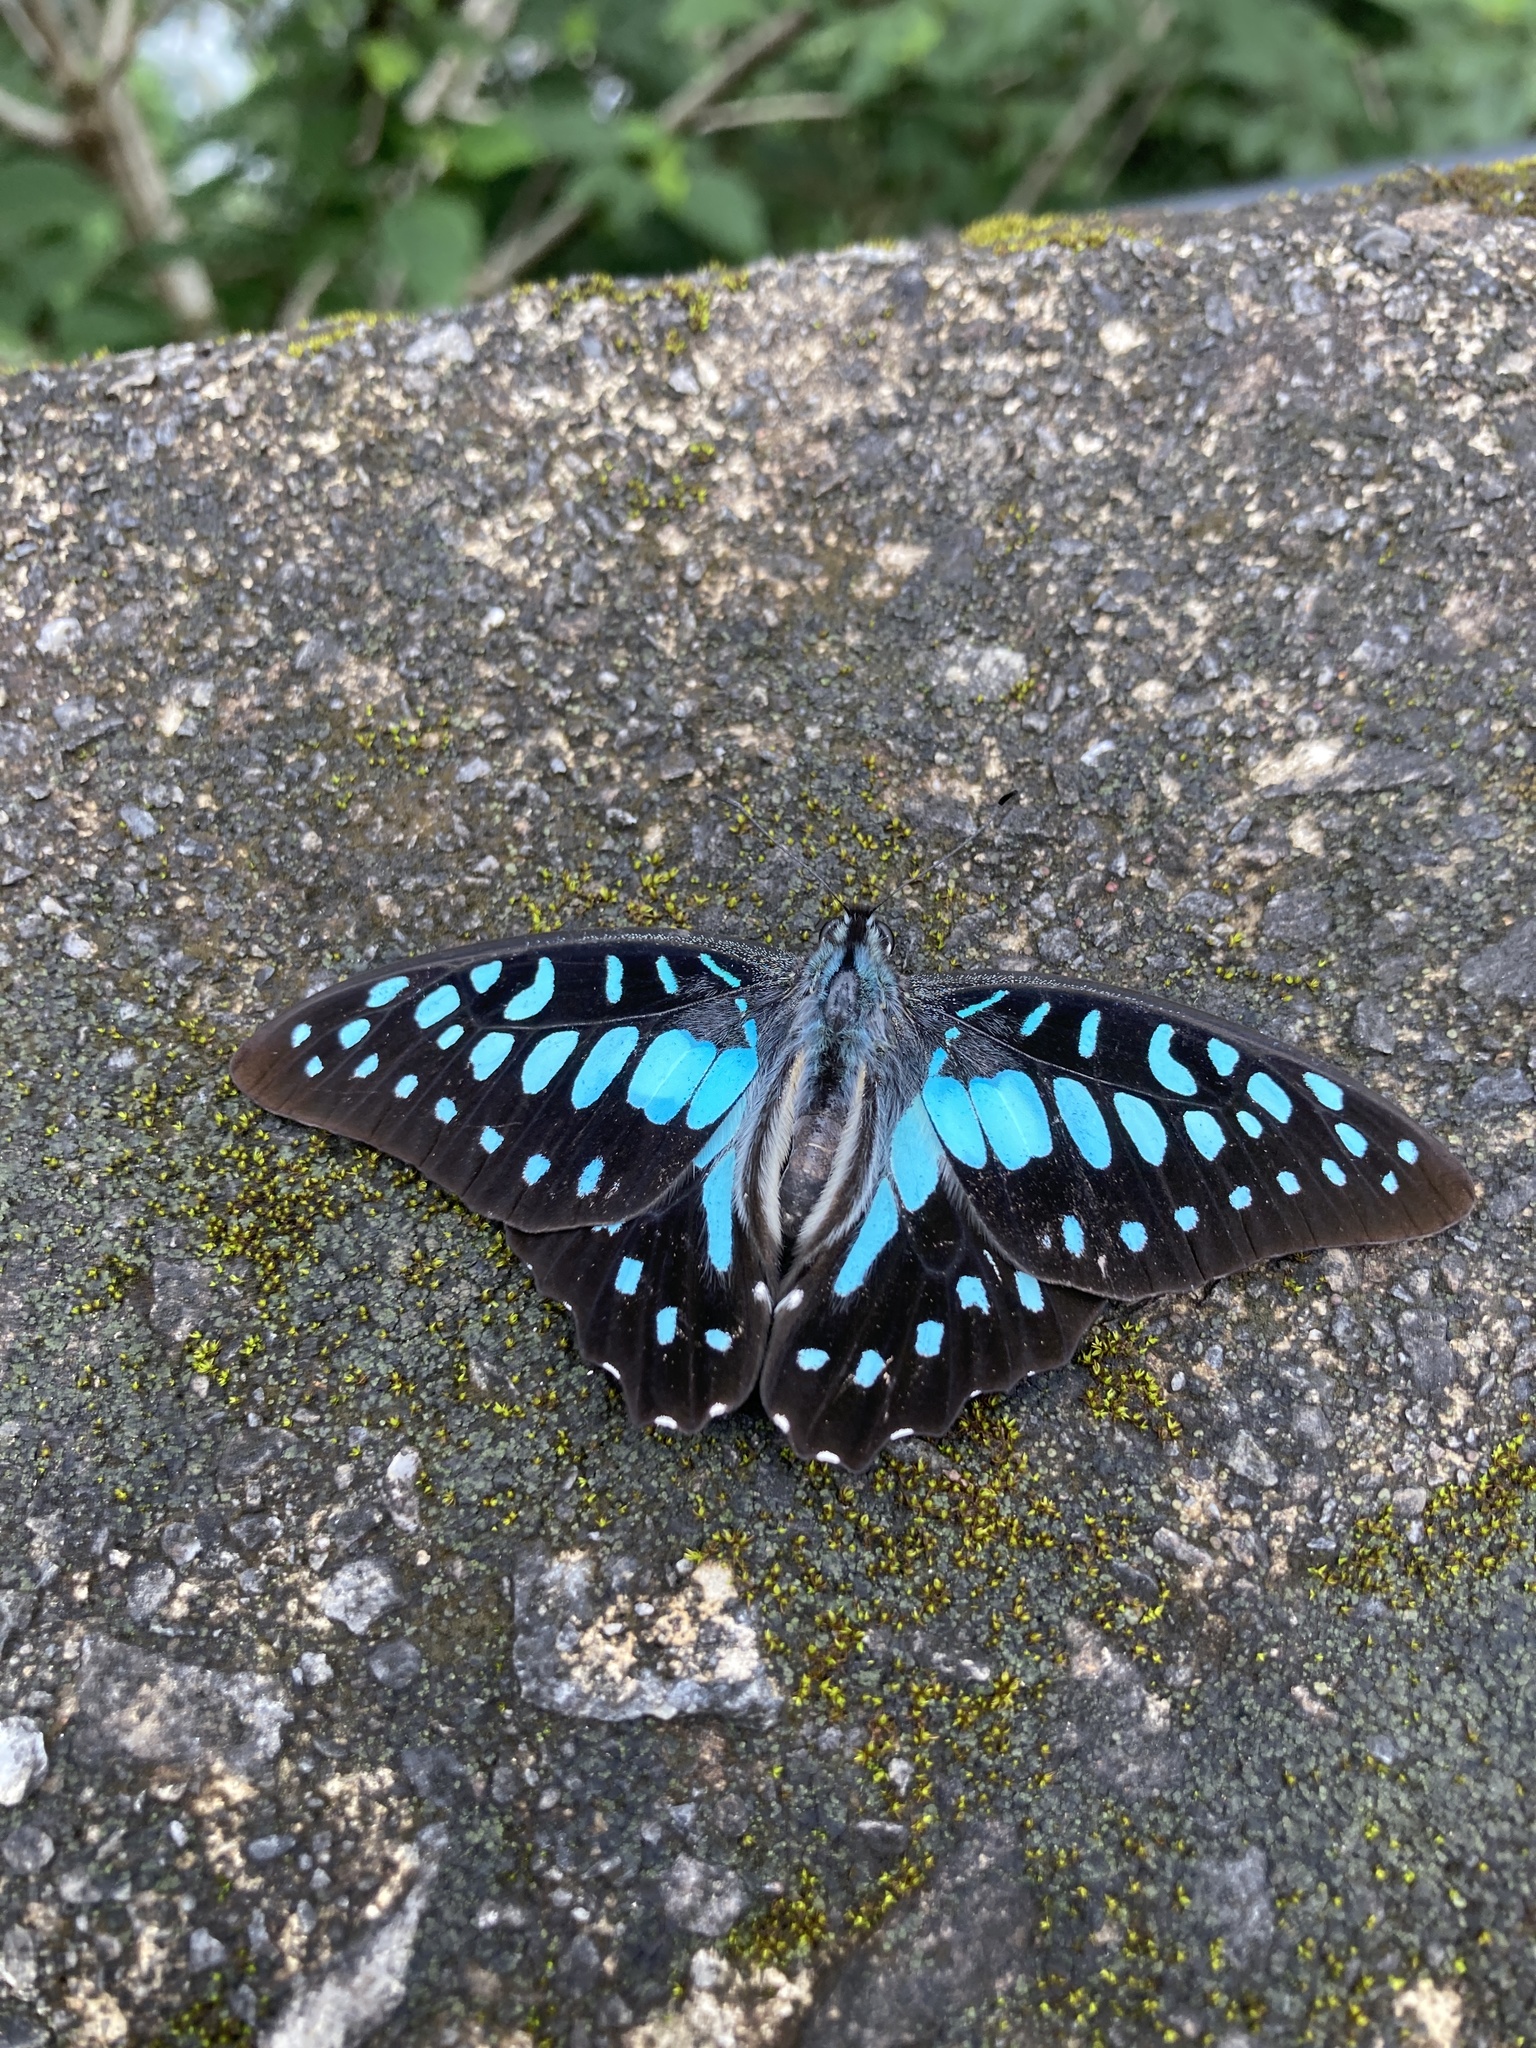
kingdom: Animalia
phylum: Arthropoda
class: Insecta
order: Lepidoptera
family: Papilionidae
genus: Graphium
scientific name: Graphium doson
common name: Common jay
